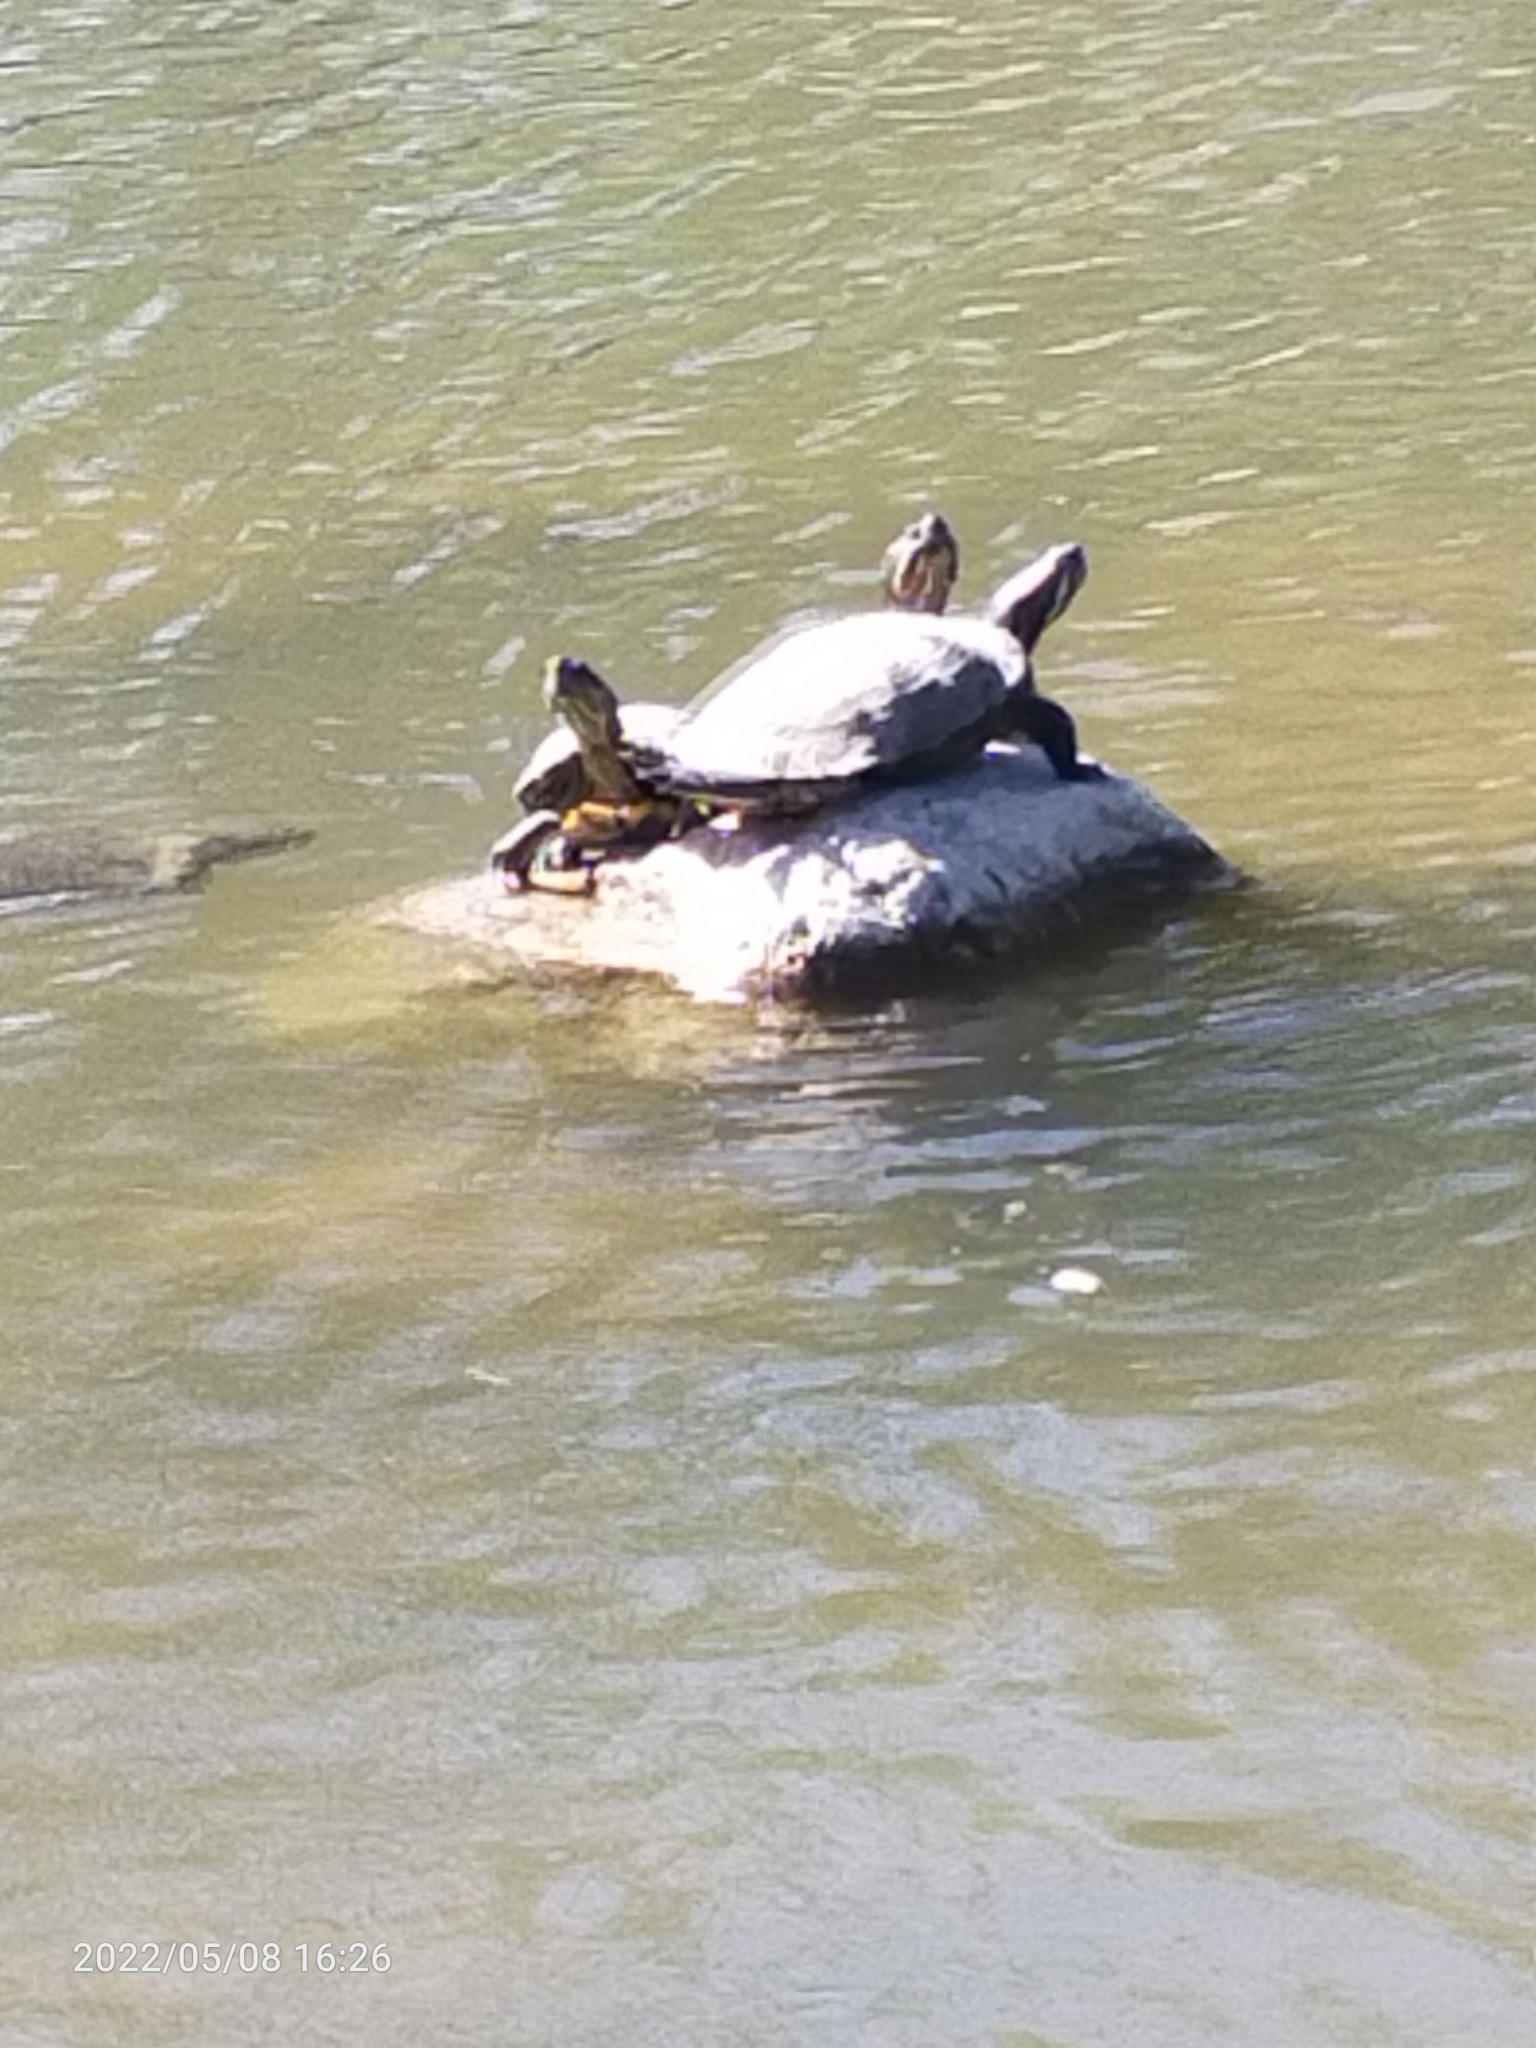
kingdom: Animalia
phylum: Chordata
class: Testudines
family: Emydidae
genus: Trachemys
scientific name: Trachemys scripta
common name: Slider
